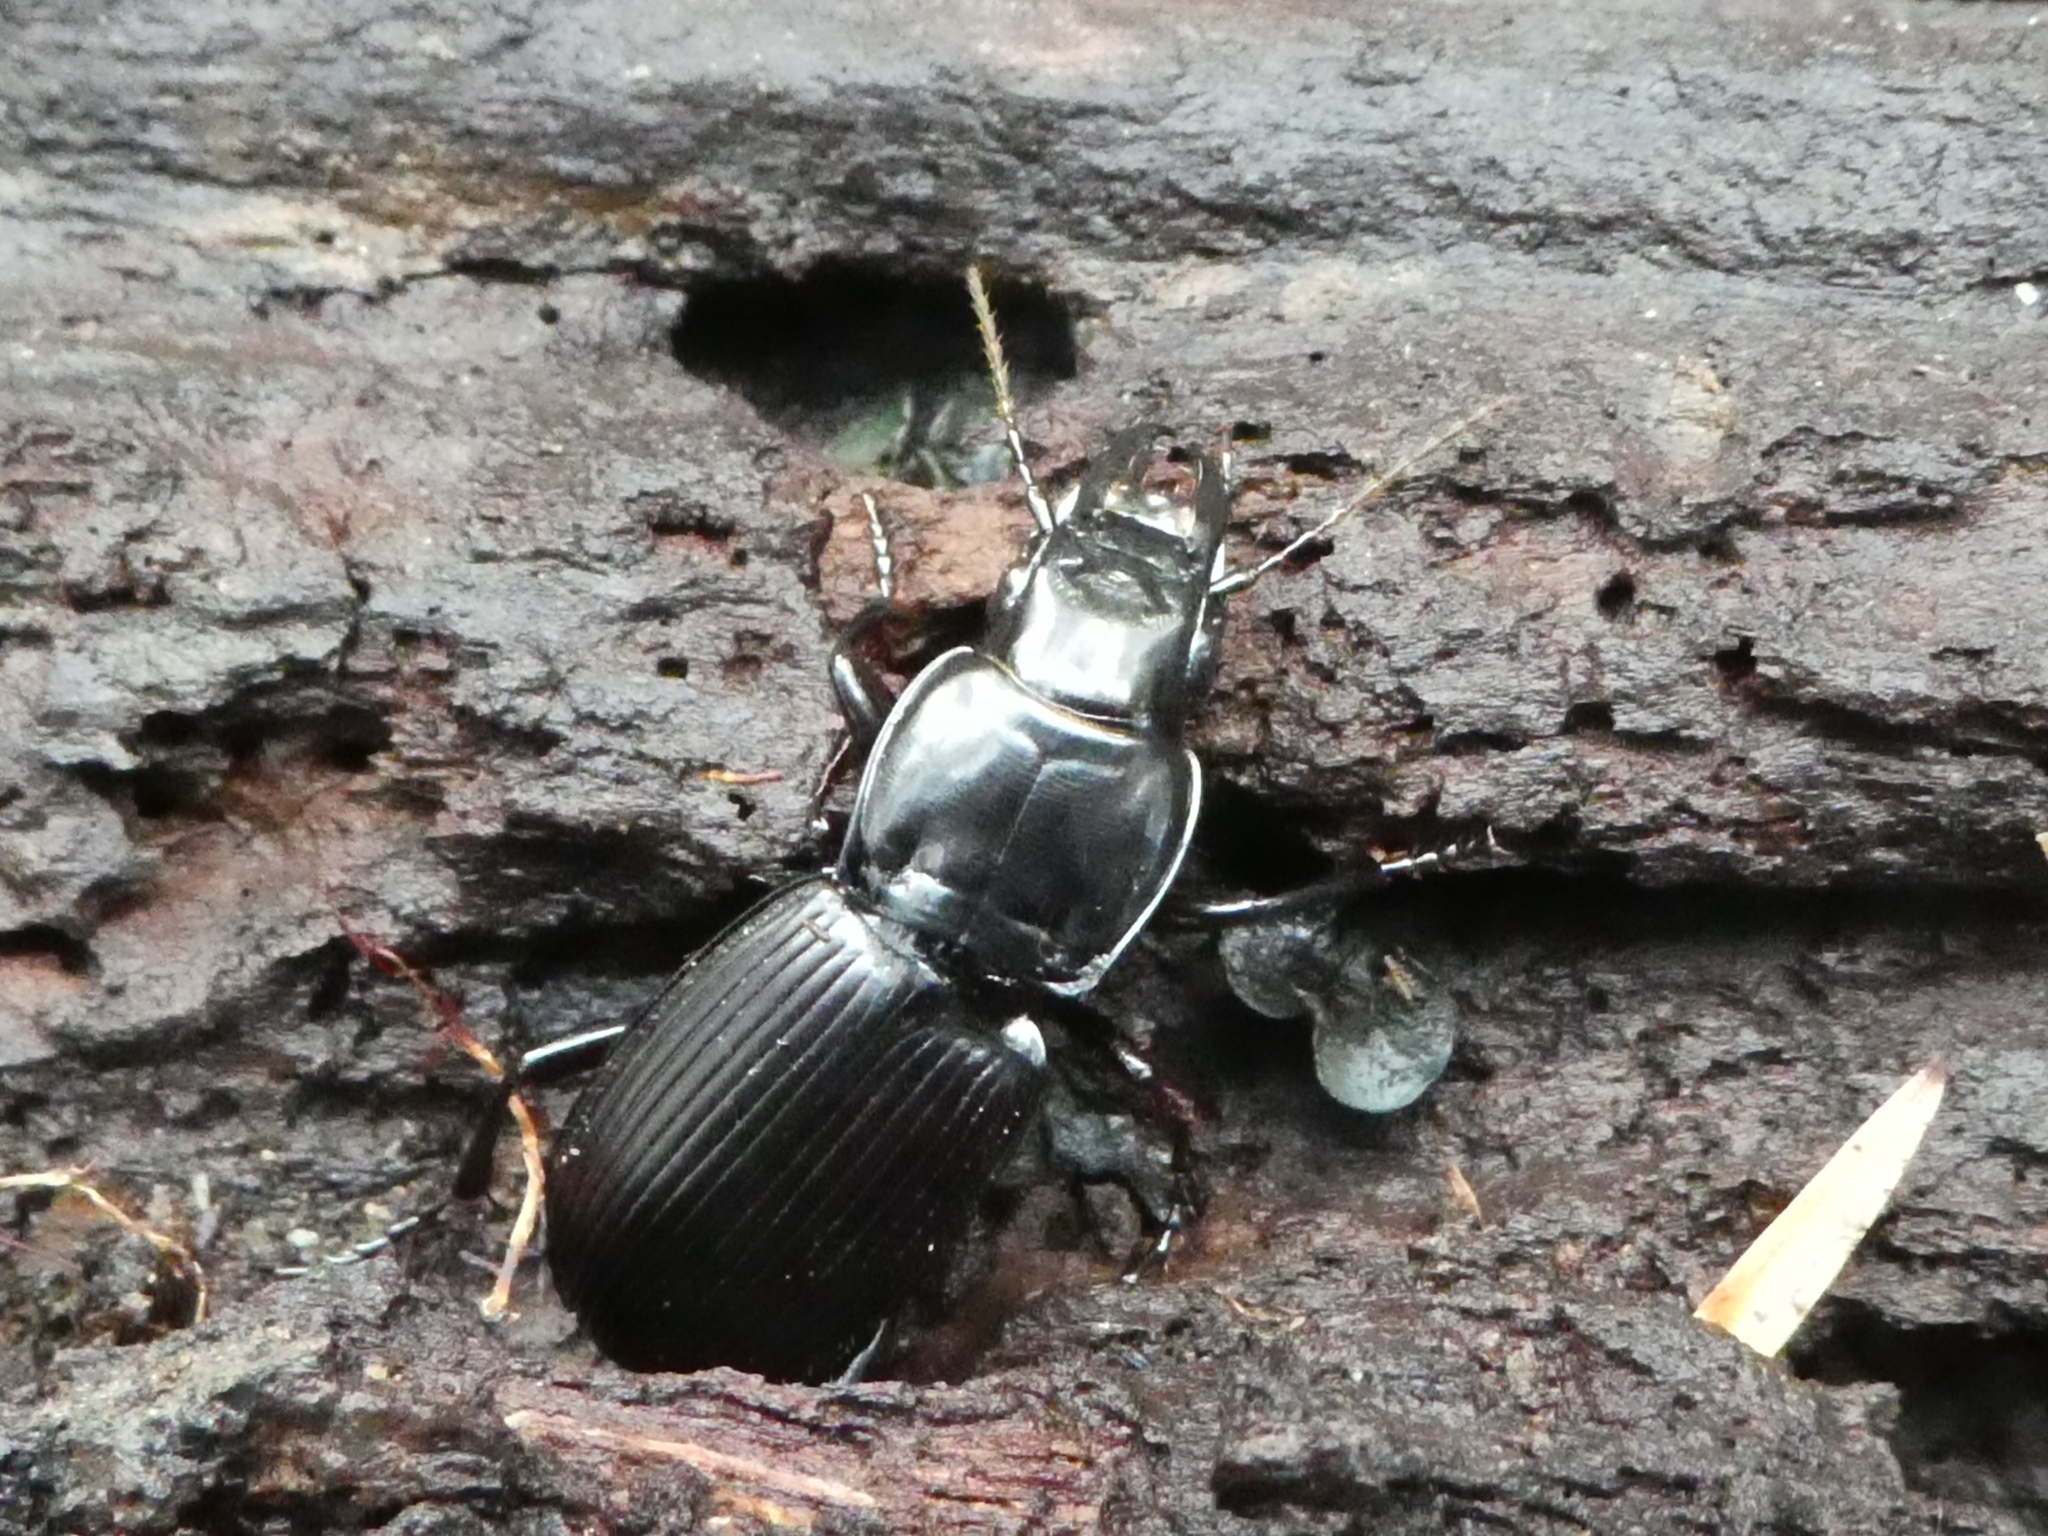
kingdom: Animalia
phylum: Arthropoda
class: Insecta
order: Coleoptera
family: Carabidae
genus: Plocamostethus
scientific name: Plocamostethus planiusculus
